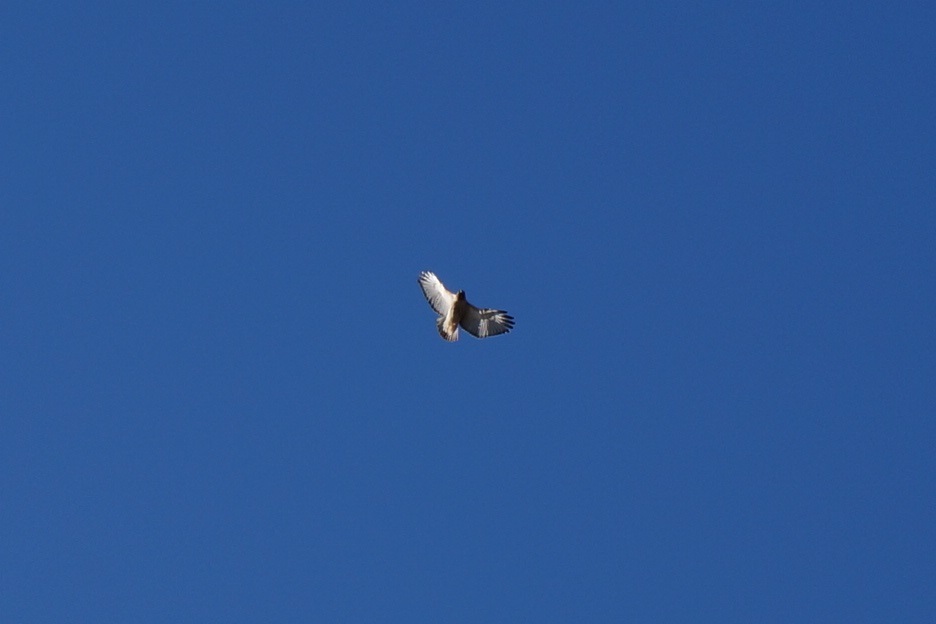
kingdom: Animalia
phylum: Chordata
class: Aves
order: Accipitriformes
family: Accipitridae
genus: Buteo
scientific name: Buteo jamaicensis
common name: Red-tailed hawk
